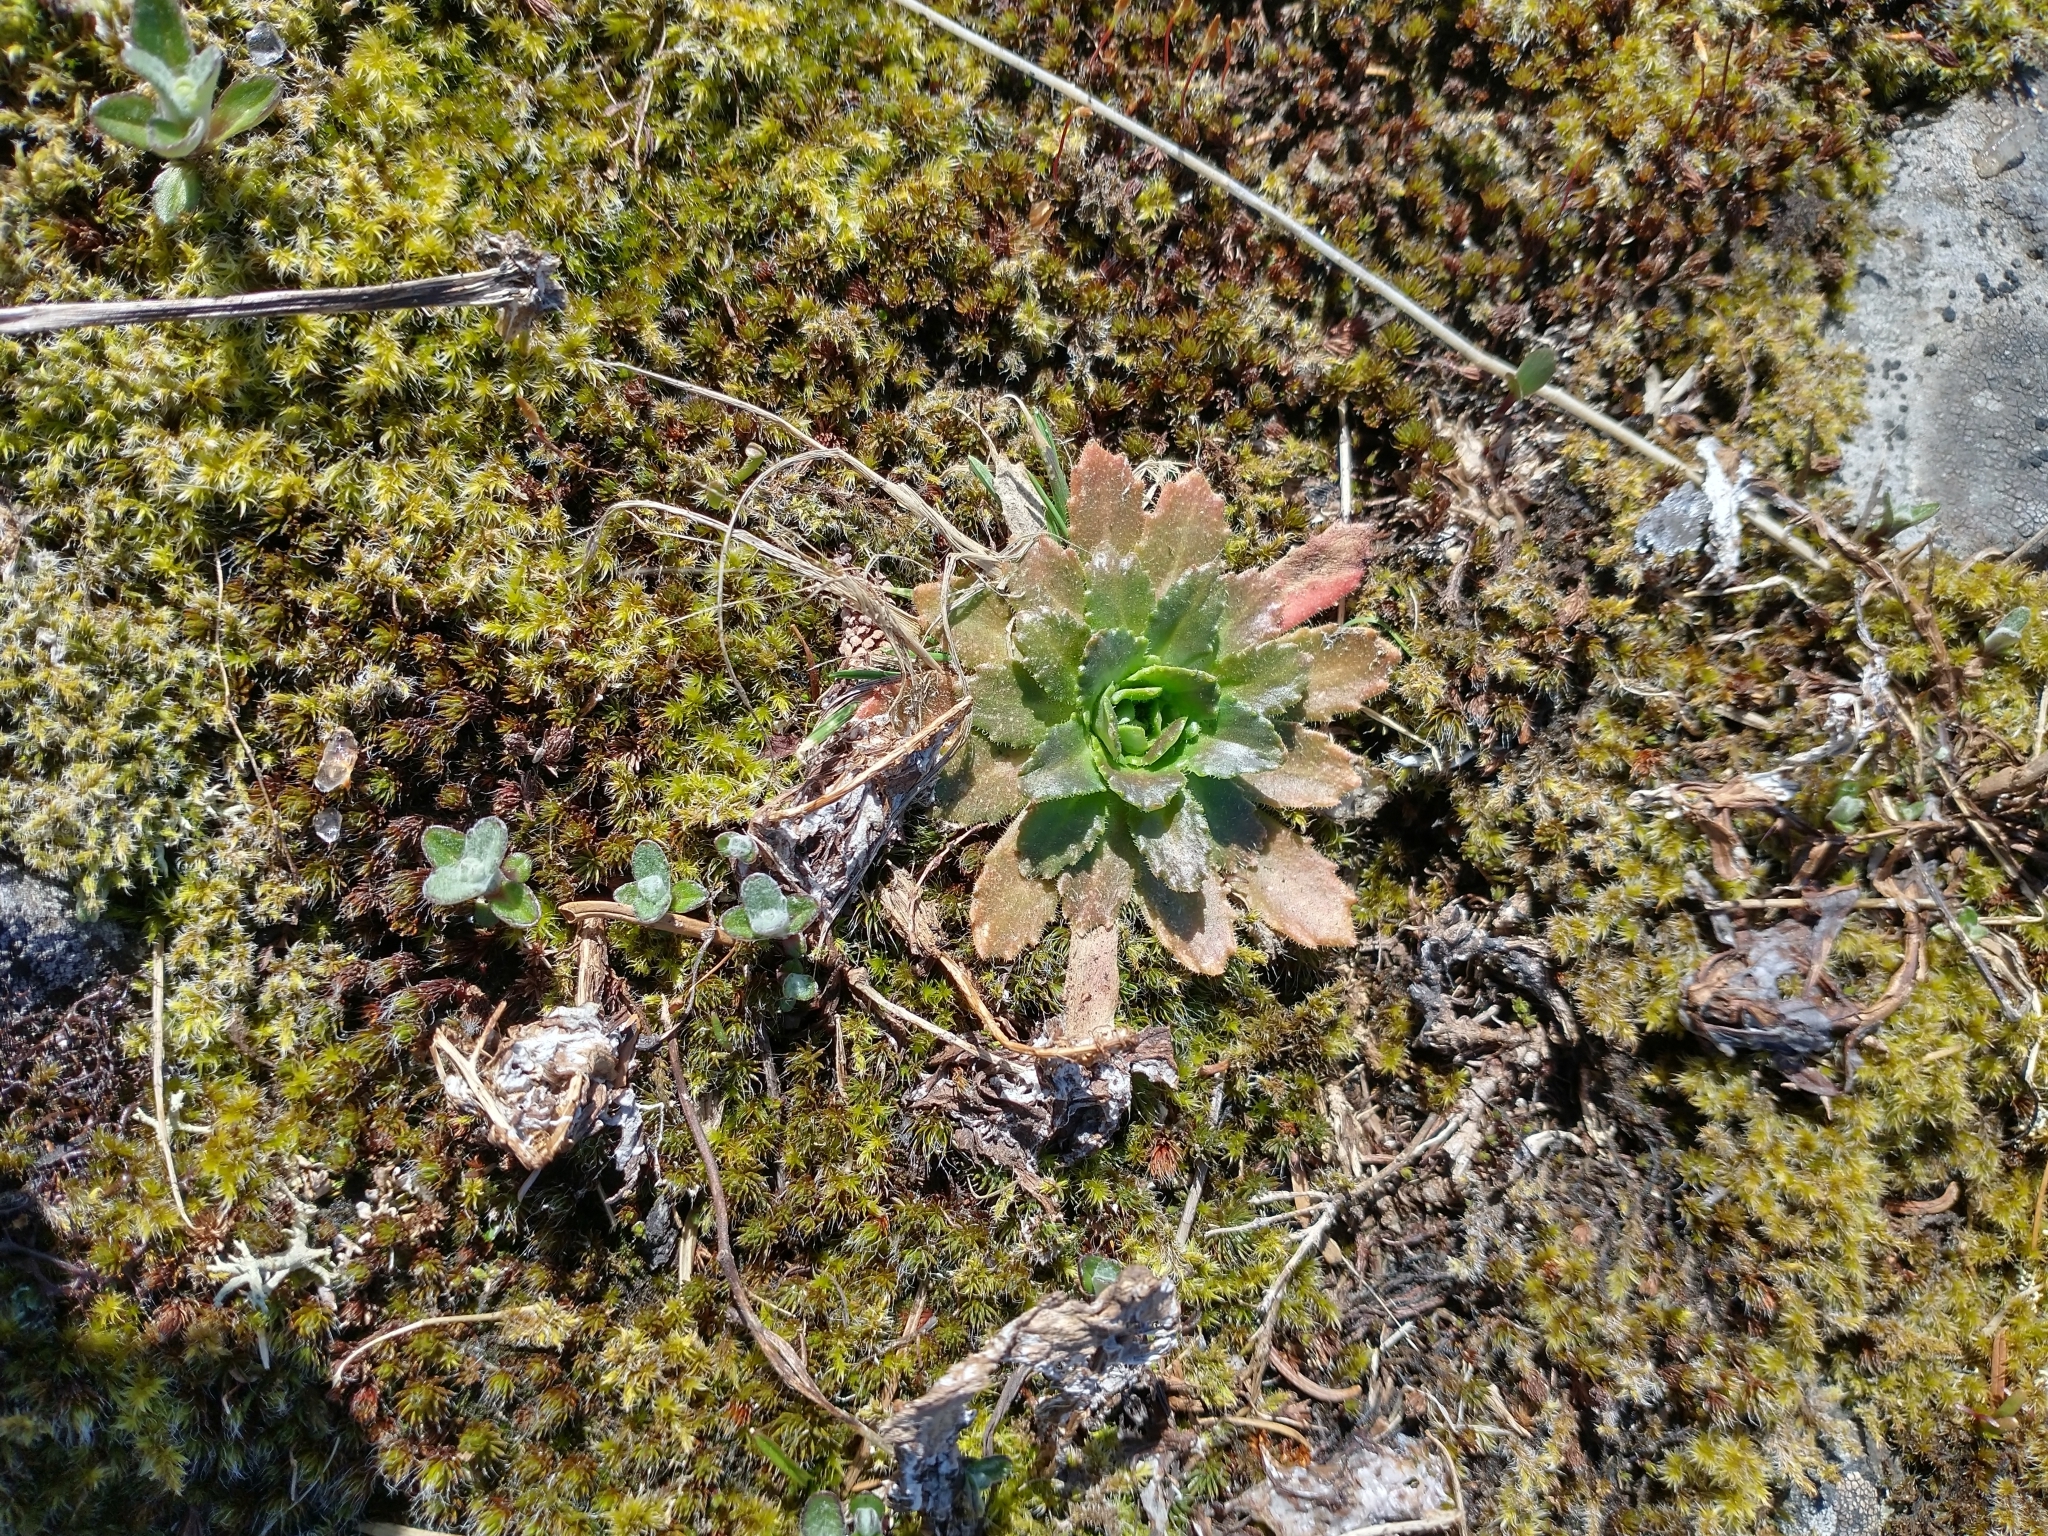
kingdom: Plantae
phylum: Tracheophyta
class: Magnoliopsida
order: Saxifragales
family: Saxifragaceae
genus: Micranthes
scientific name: Micranthes ferruginea
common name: Rusty saxifrage
